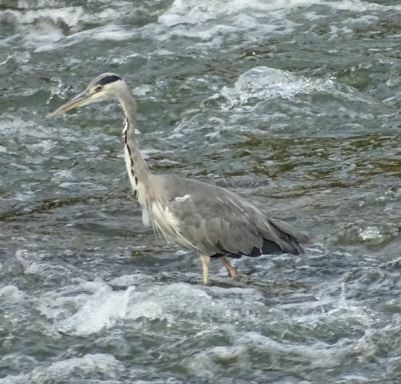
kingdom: Animalia
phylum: Chordata
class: Aves
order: Pelecaniformes
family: Ardeidae
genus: Ardea
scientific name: Ardea cinerea
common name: Grey heron
